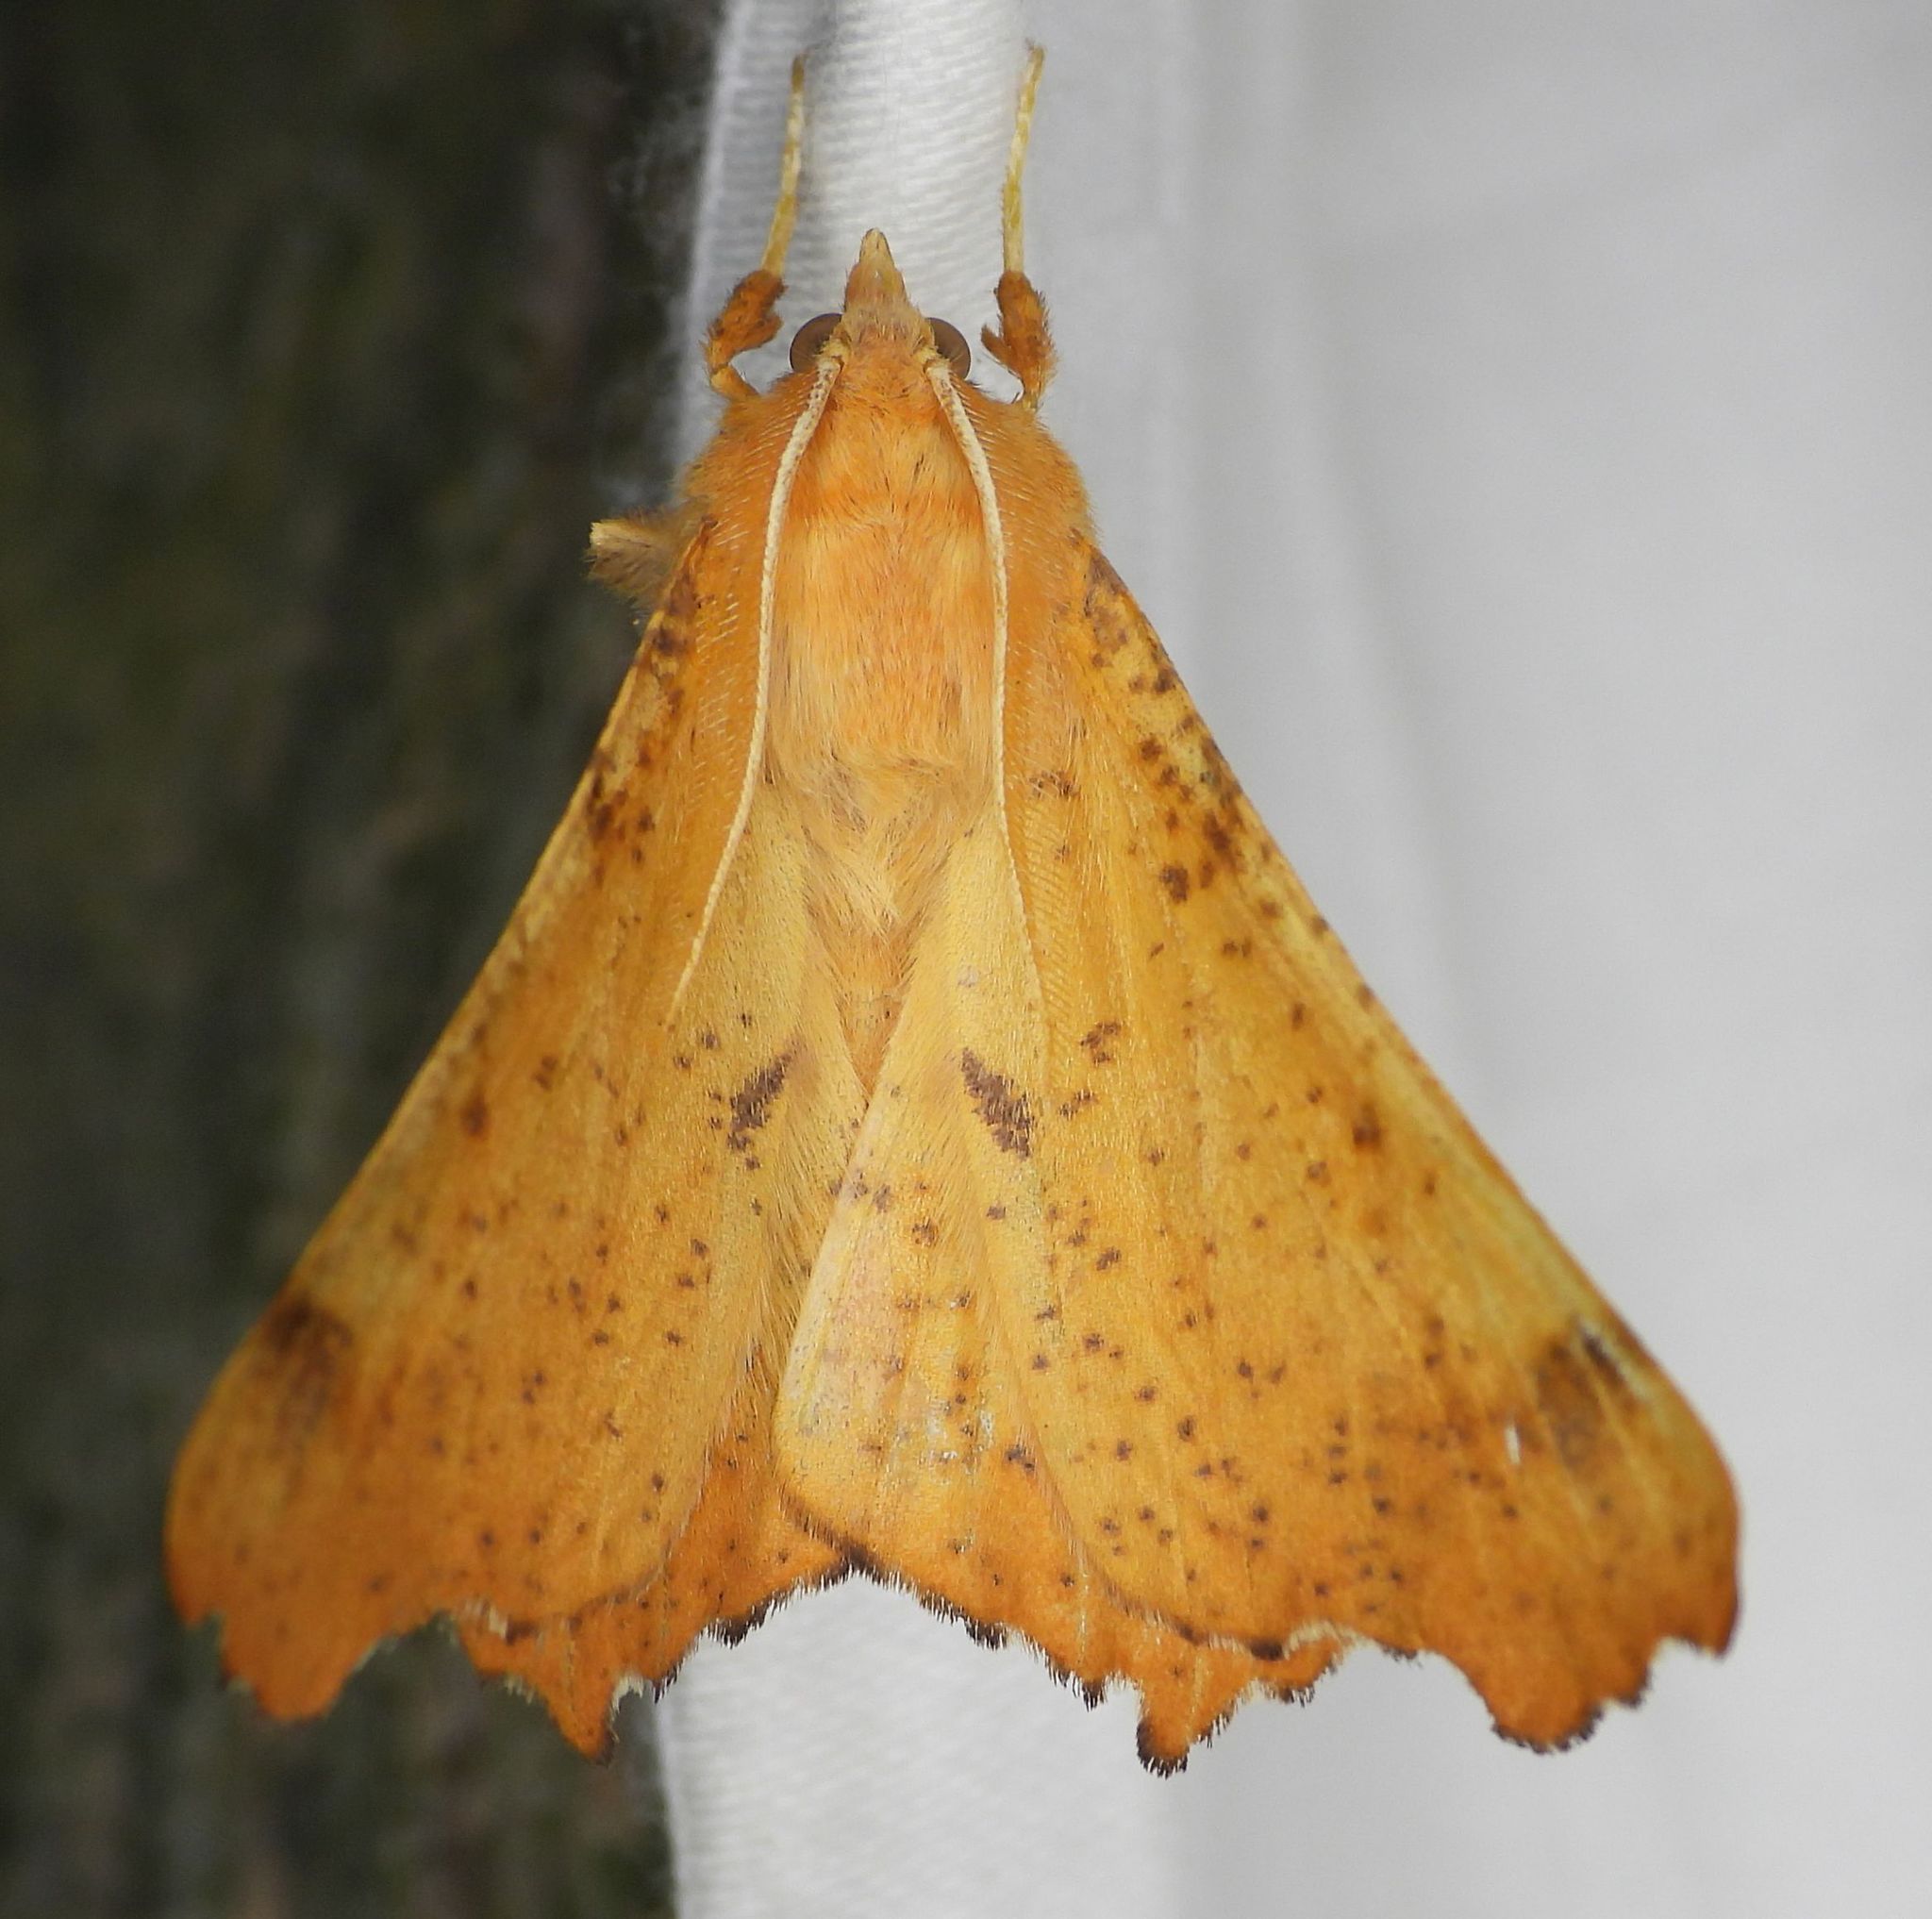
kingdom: Animalia
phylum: Arthropoda
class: Insecta
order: Lepidoptera
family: Geometridae
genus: Ennomos
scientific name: Ennomos magnaria
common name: Maple spanworm
